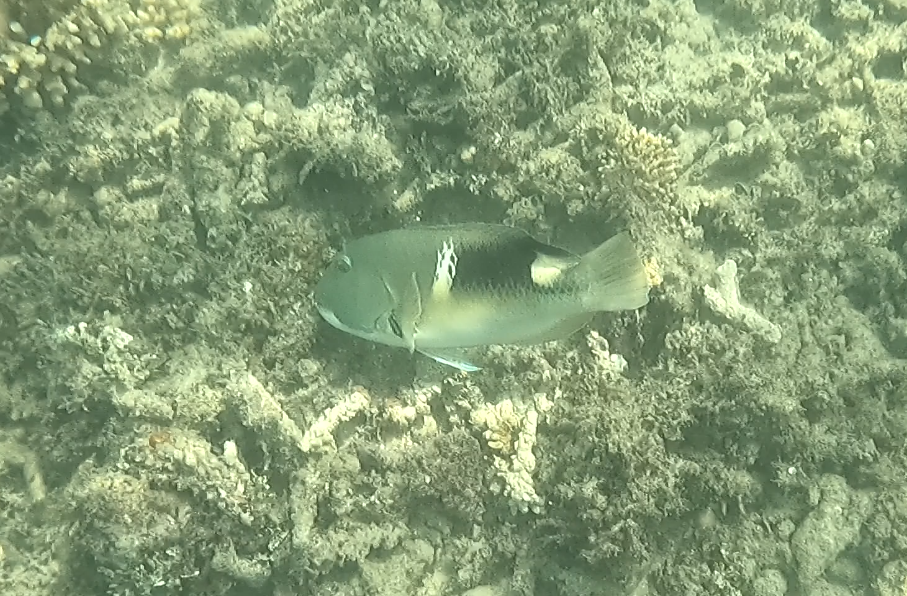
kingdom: Animalia
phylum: Chordata
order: Perciformes
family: Labridae
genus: Choerodon
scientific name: Choerodon anchorago
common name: Anchor tuskfish
